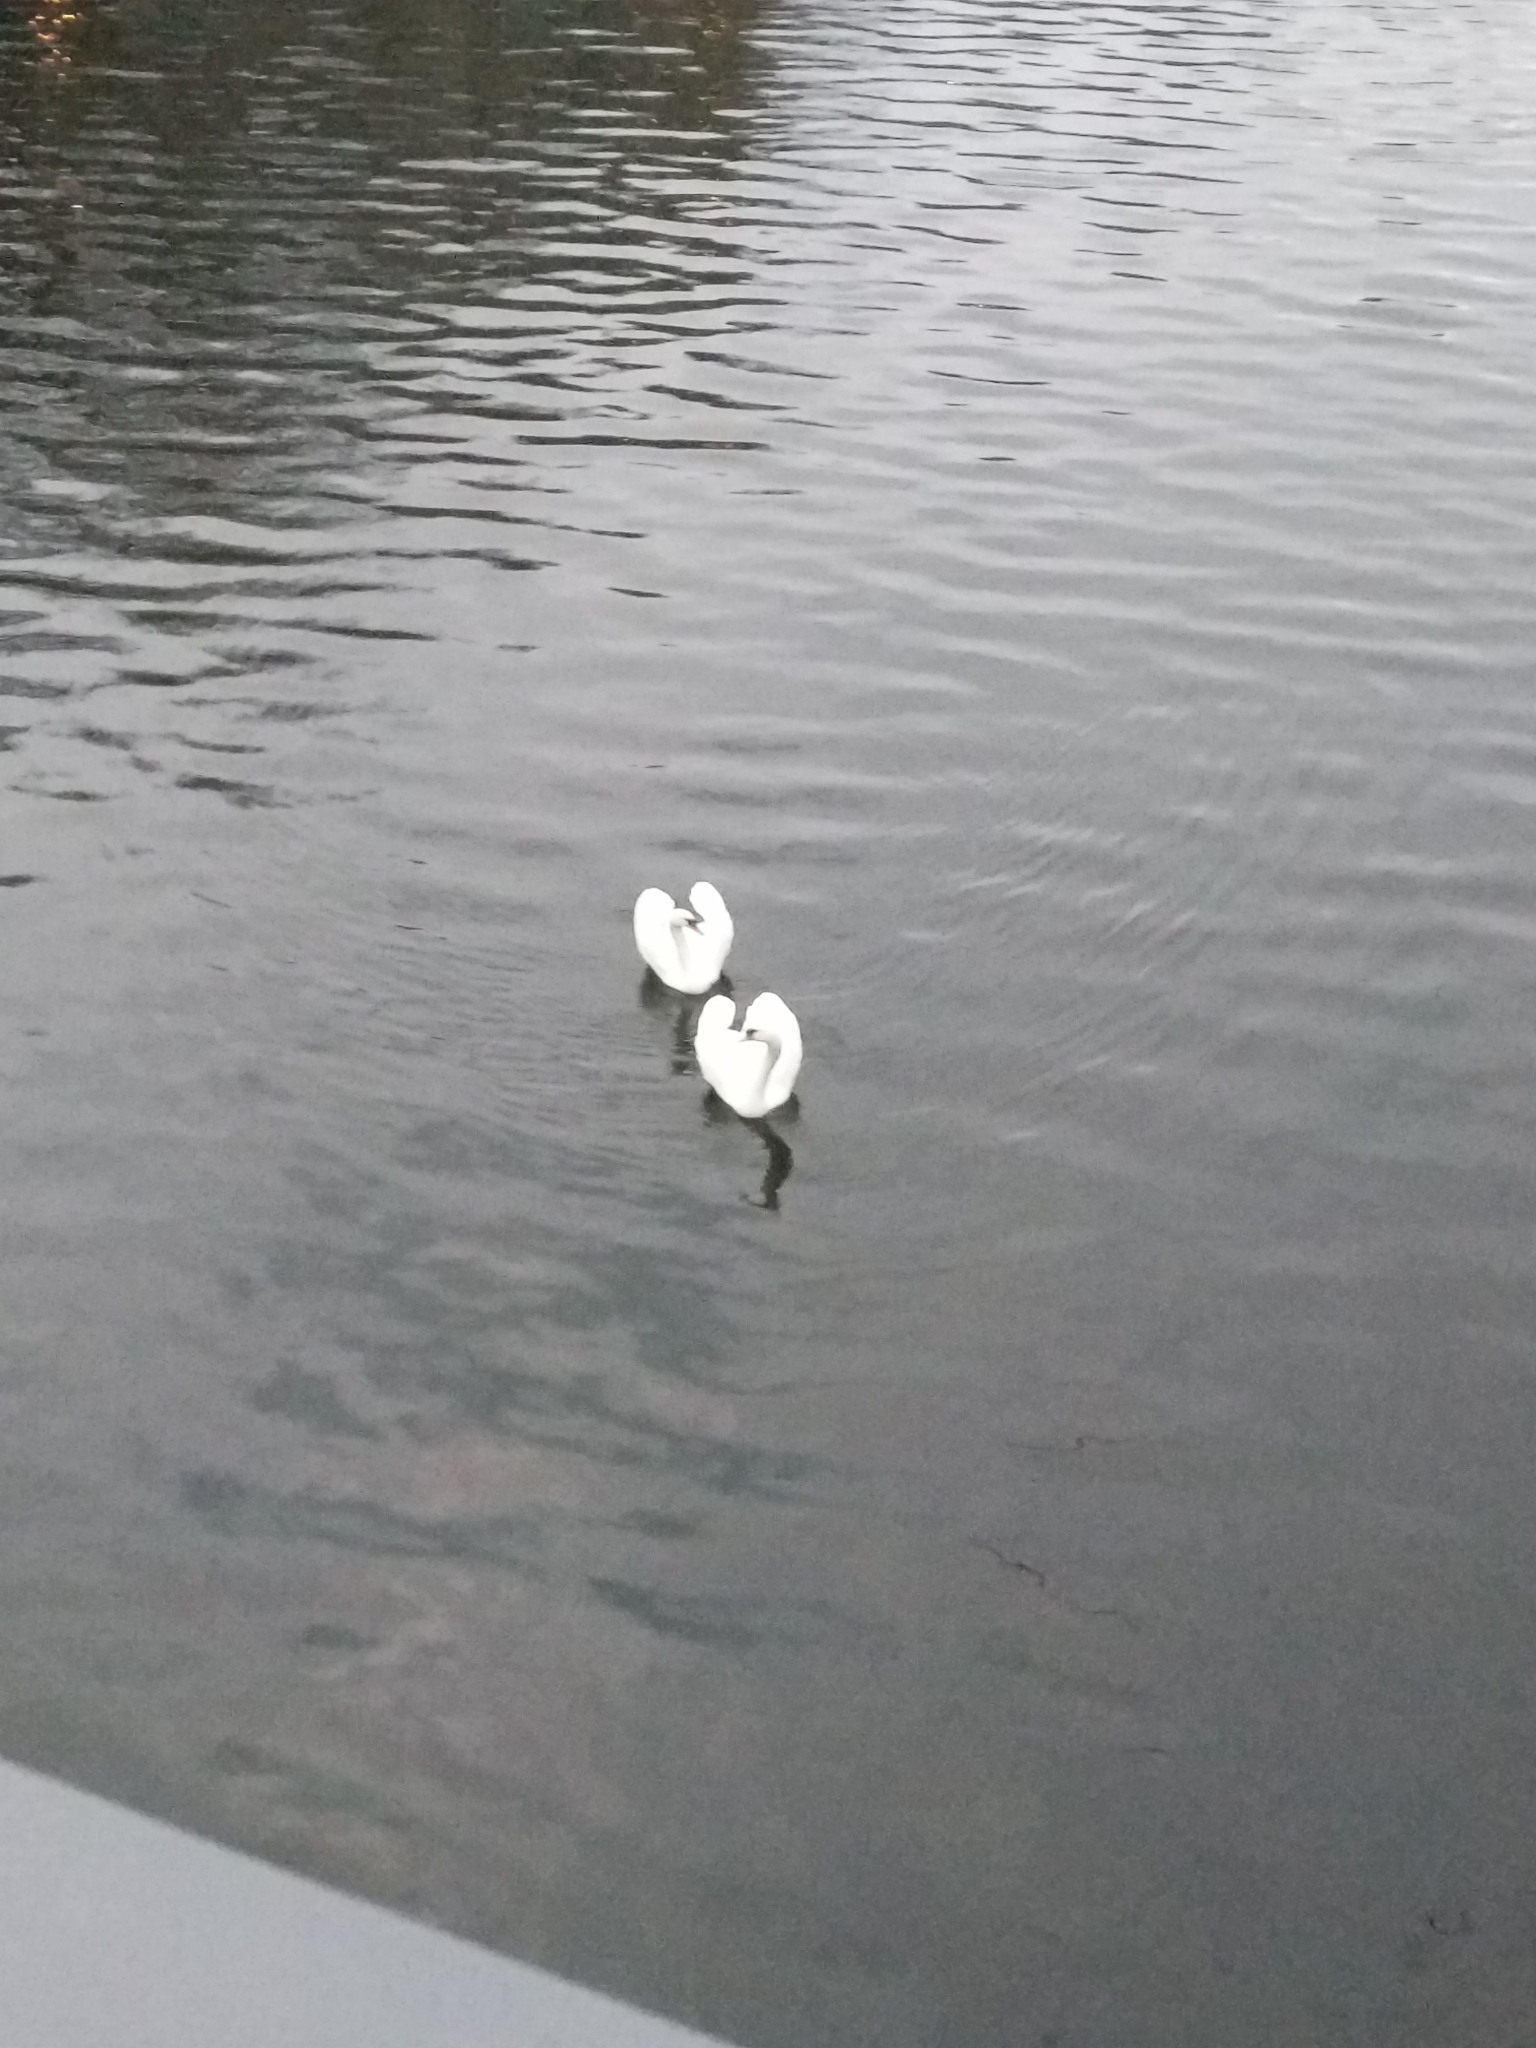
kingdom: Animalia
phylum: Chordata
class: Aves
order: Anseriformes
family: Anatidae
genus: Cygnus
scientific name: Cygnus olor
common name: Mute swan
